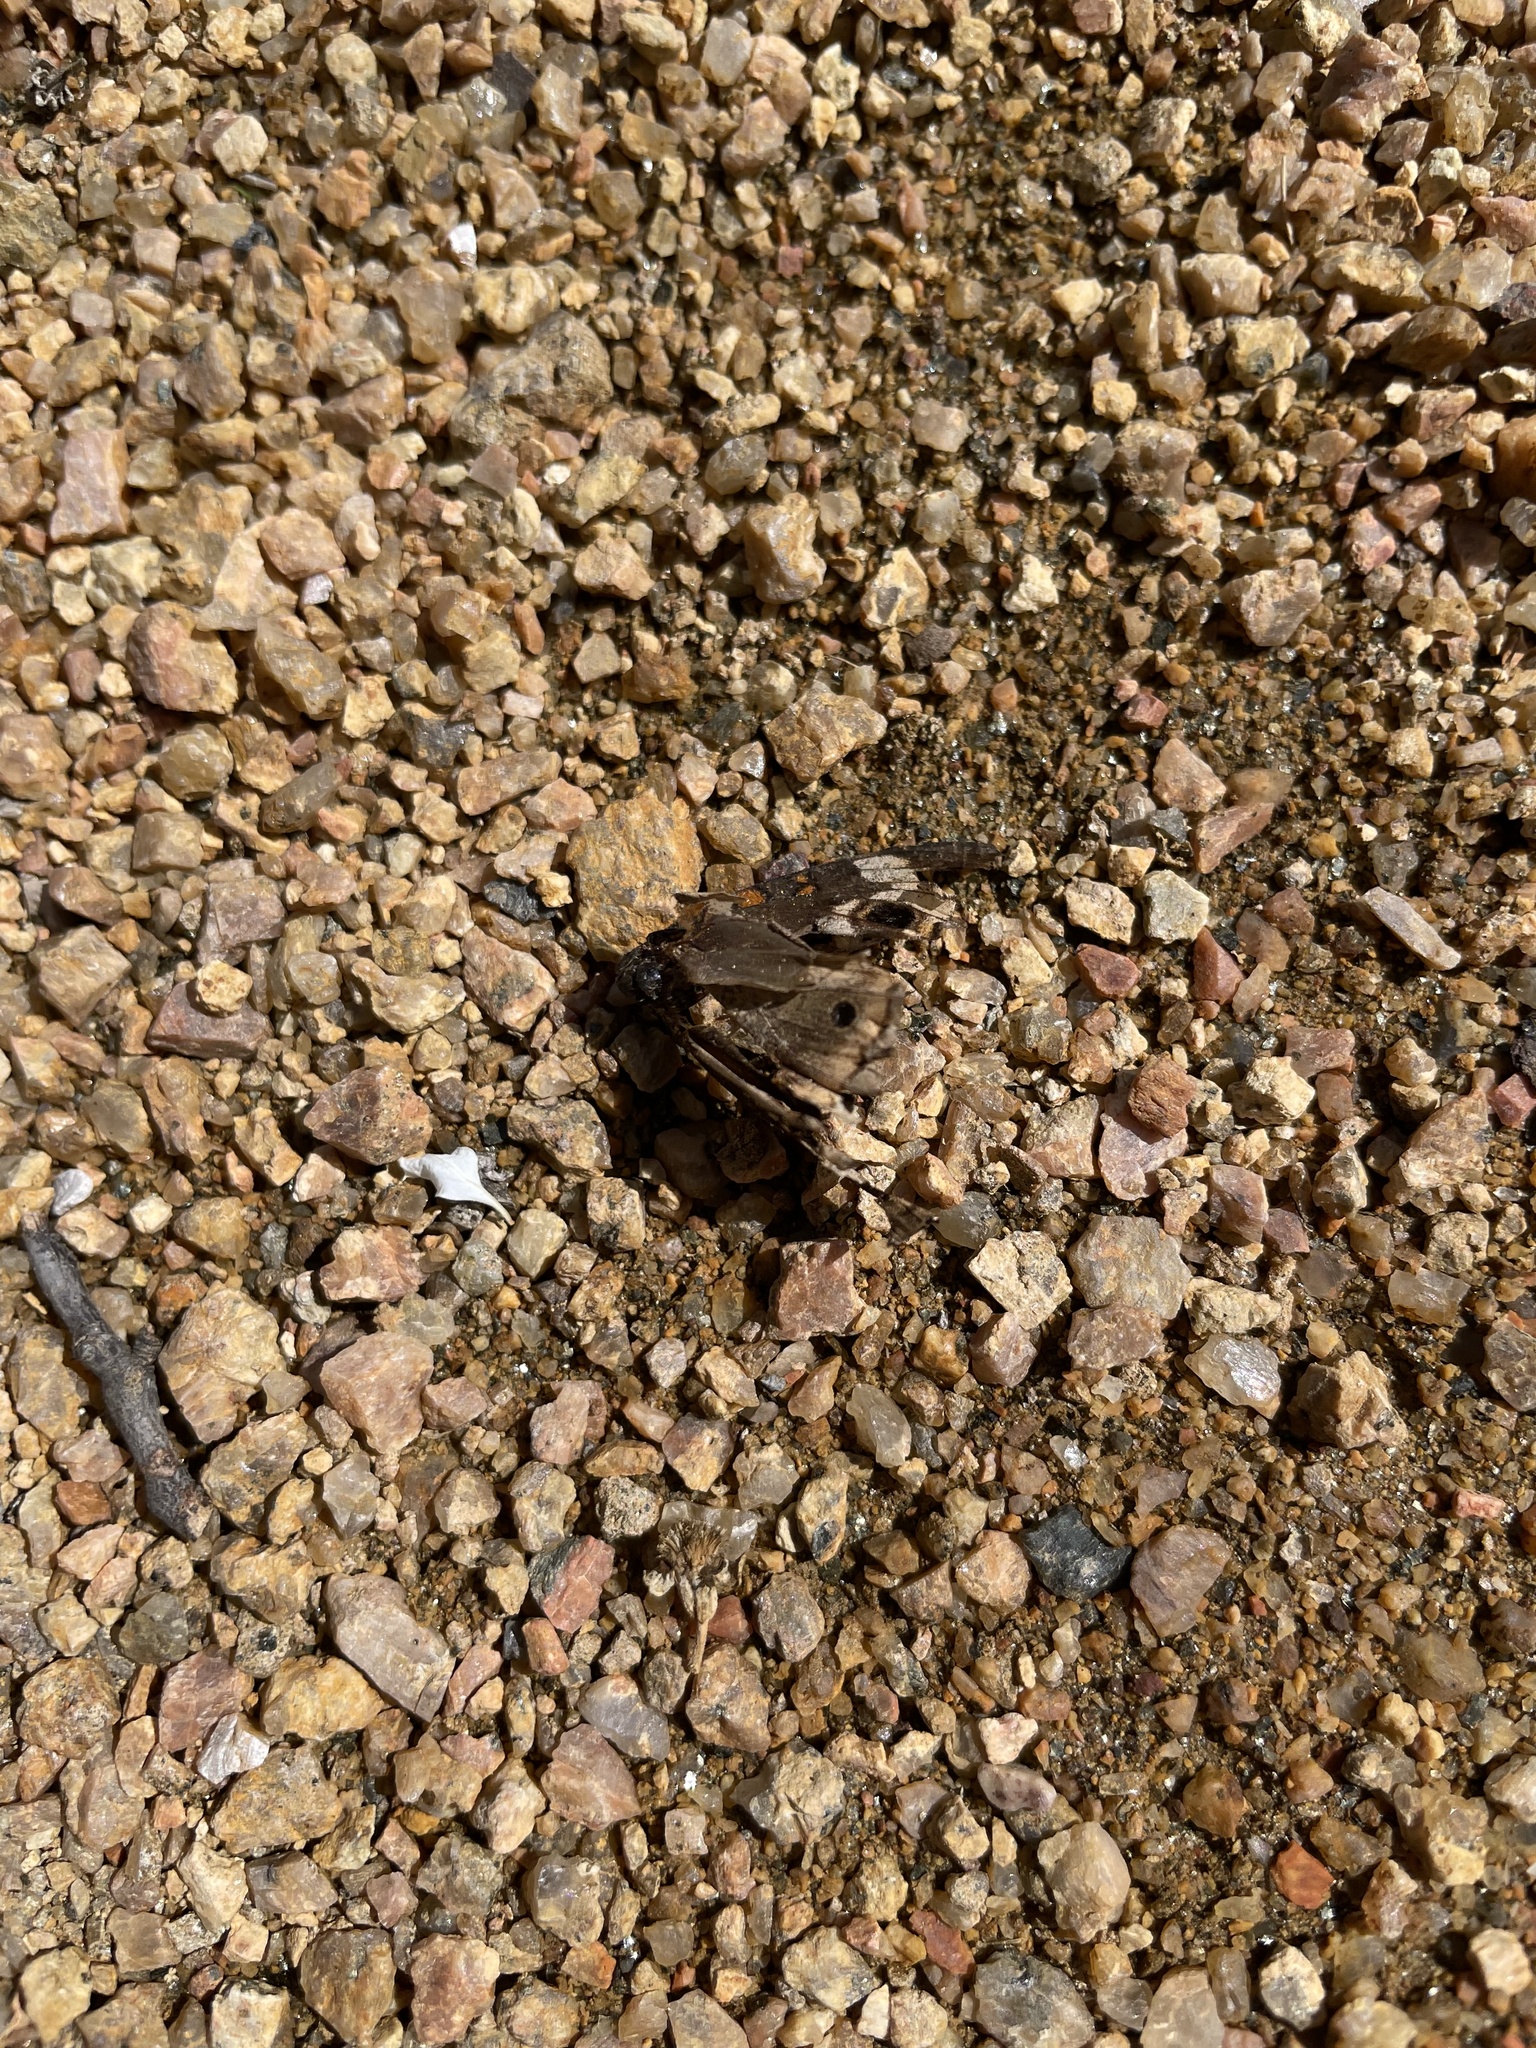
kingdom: Animalia
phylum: Arthropoda
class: Insecta
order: Lepidoptera
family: Nymphalidae
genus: Junonia
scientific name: Junonia coenia
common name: Common buckeye
